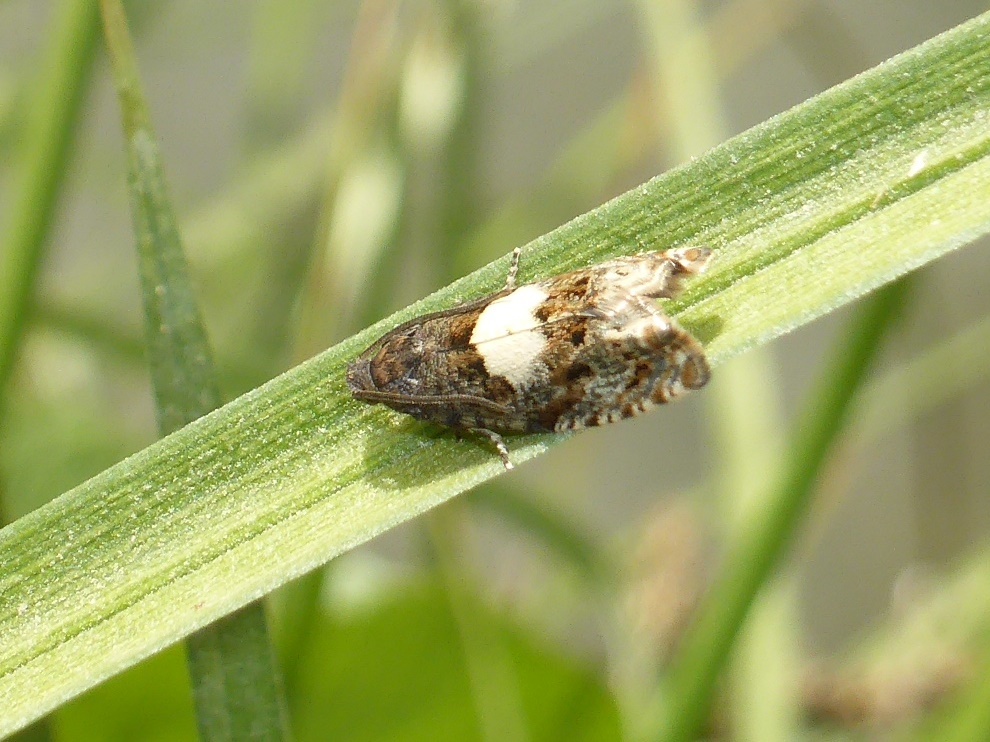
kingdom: Animalia
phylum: Arthropoda
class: Insecta
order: Lepidoptera
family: Tortricidae
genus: Epiblema
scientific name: Epiblema sticticana
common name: Colt's-foot bell
